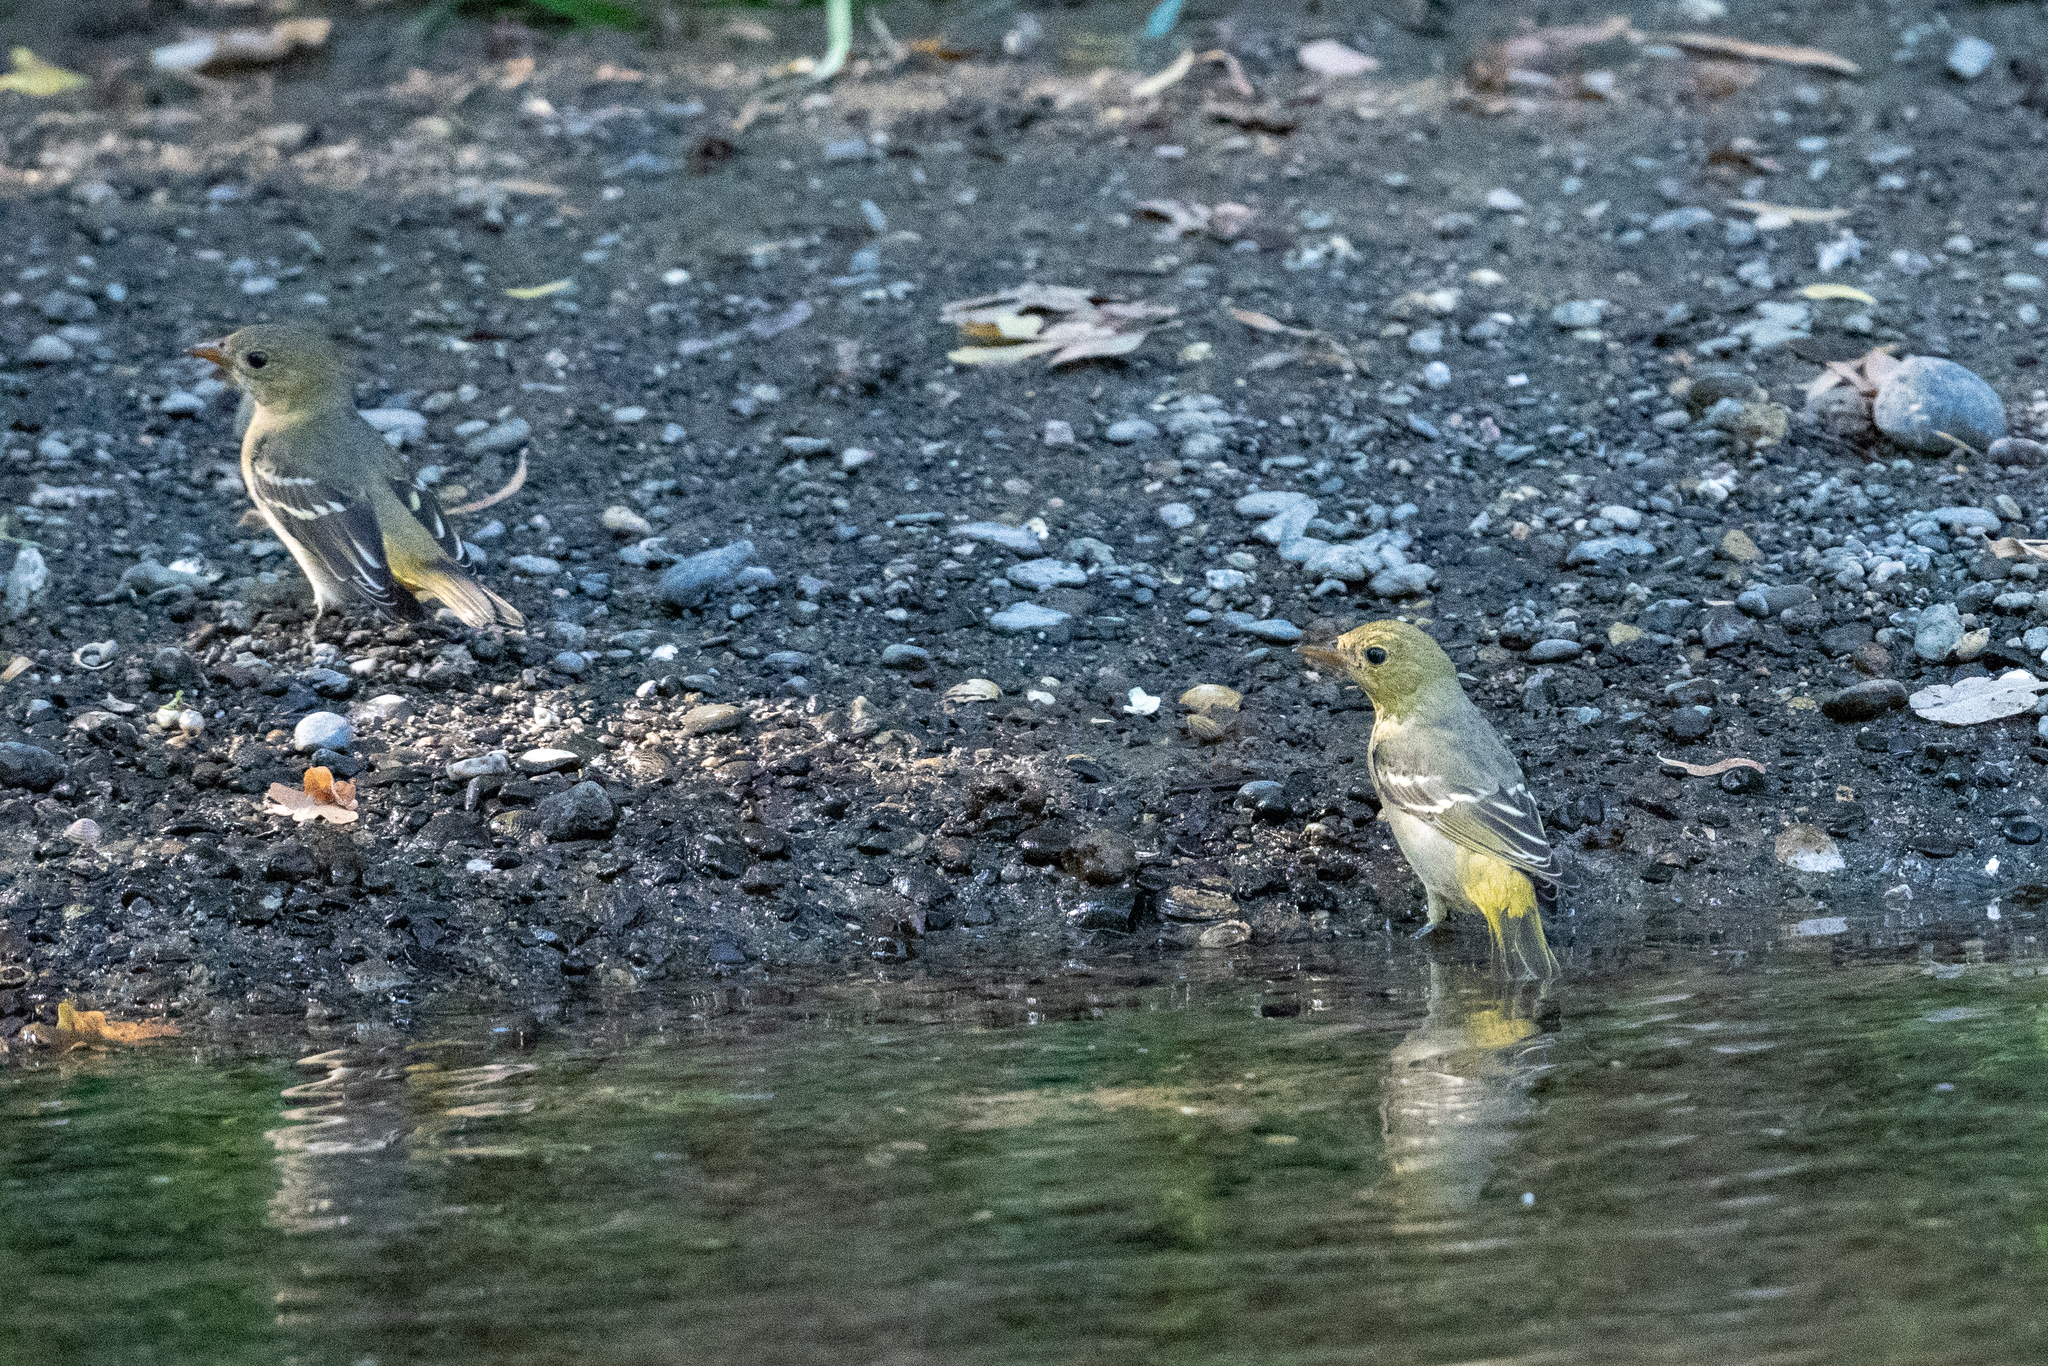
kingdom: Animalia
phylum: Chordata
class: Aves
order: Passeriformes
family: Cardinalidae
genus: Piranga
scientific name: Piranga ludoviciana
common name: Western tanager
